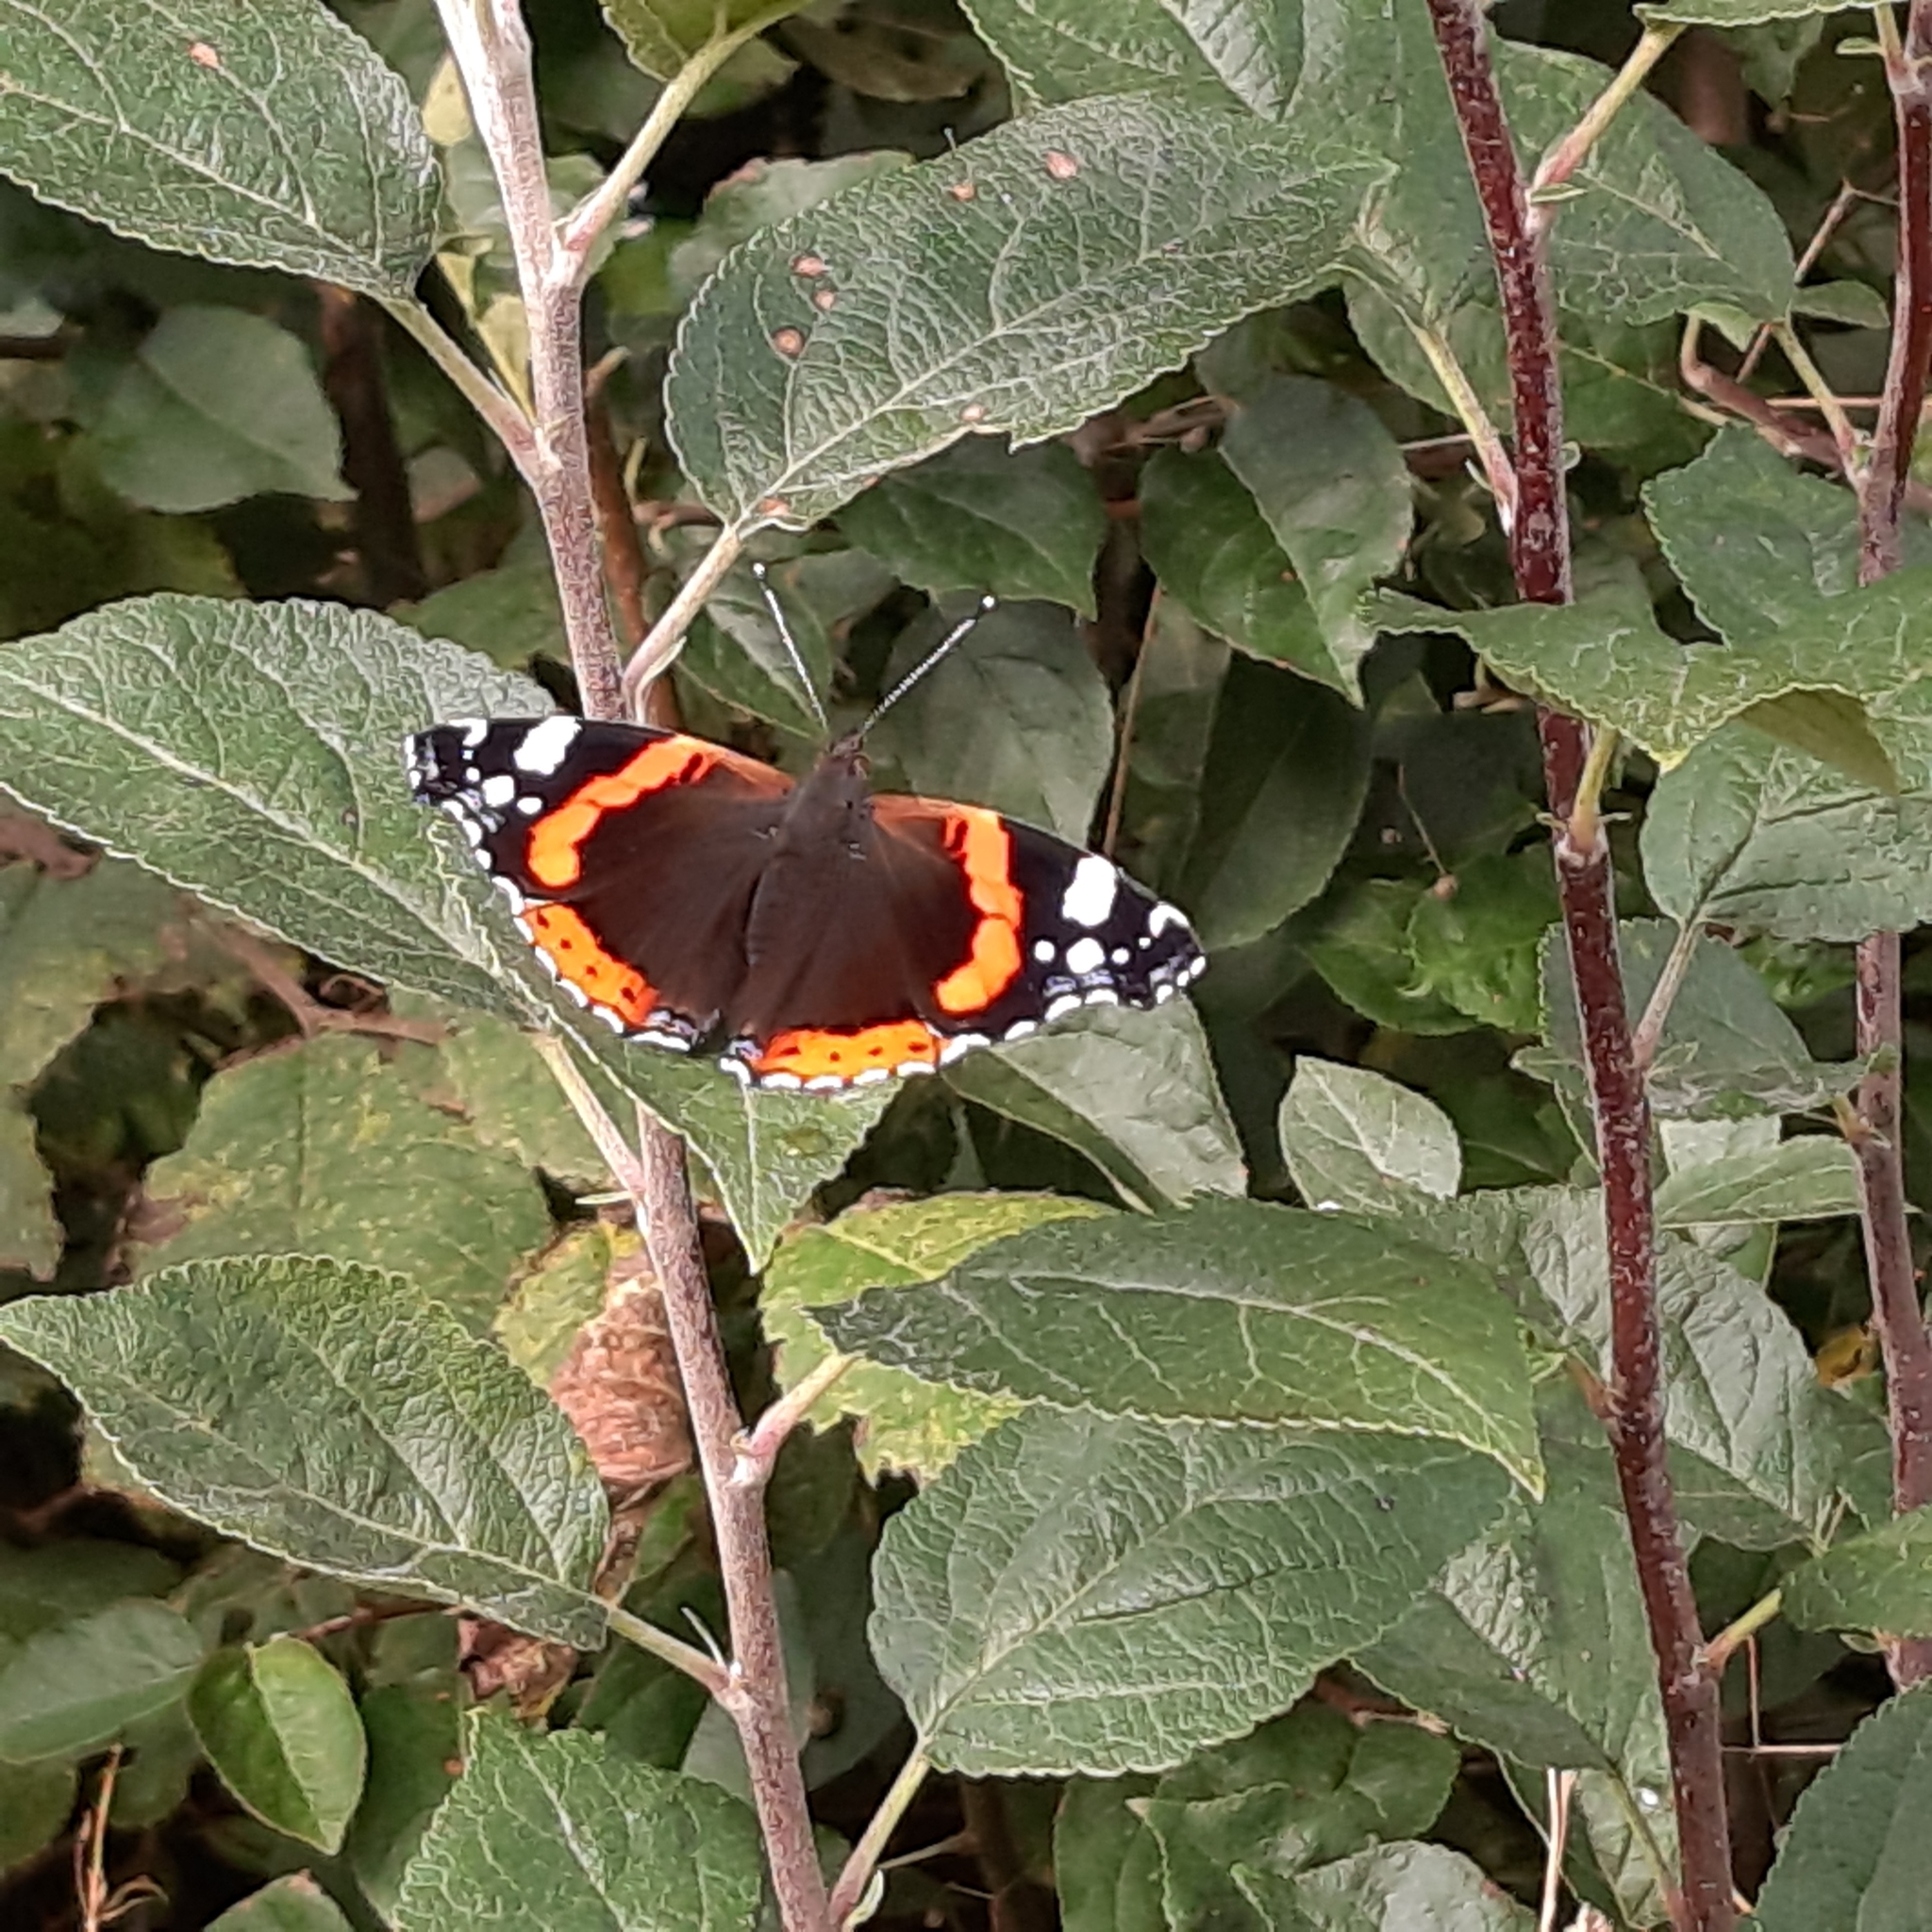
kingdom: Animalia
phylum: Arthropoda
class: Insecta
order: Lepidoptera
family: Nymphalidae
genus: Vanessa
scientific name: Vanessa atalanta
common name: Red admiral
